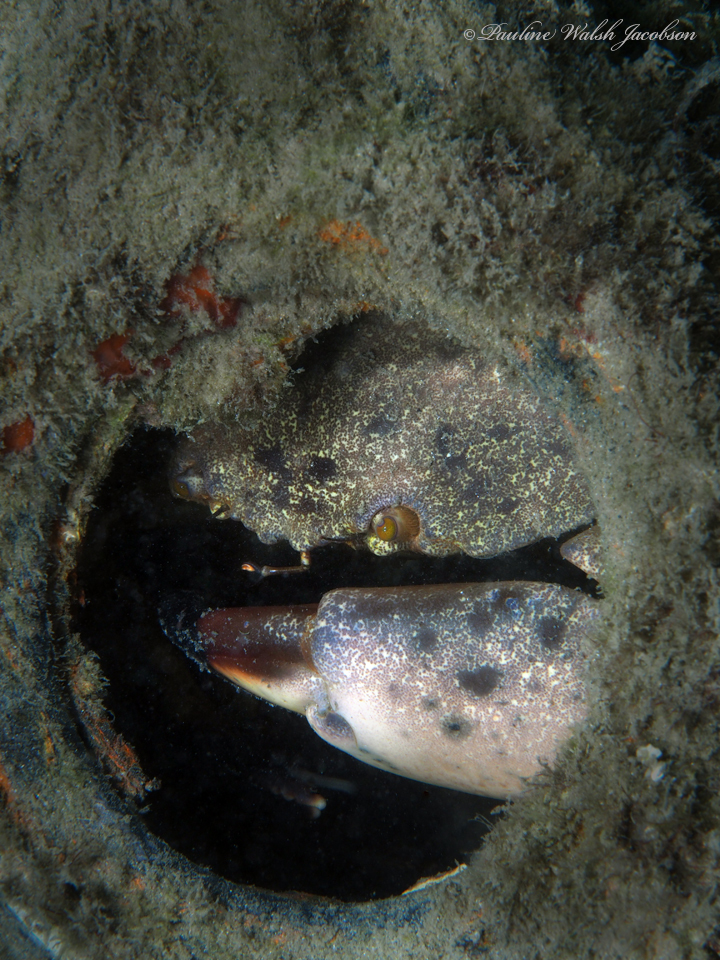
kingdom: Animalia
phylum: Arthropoda
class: Malacostraca
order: Decapoda
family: Menippidae
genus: Menippe
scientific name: Menippe mercenaria
